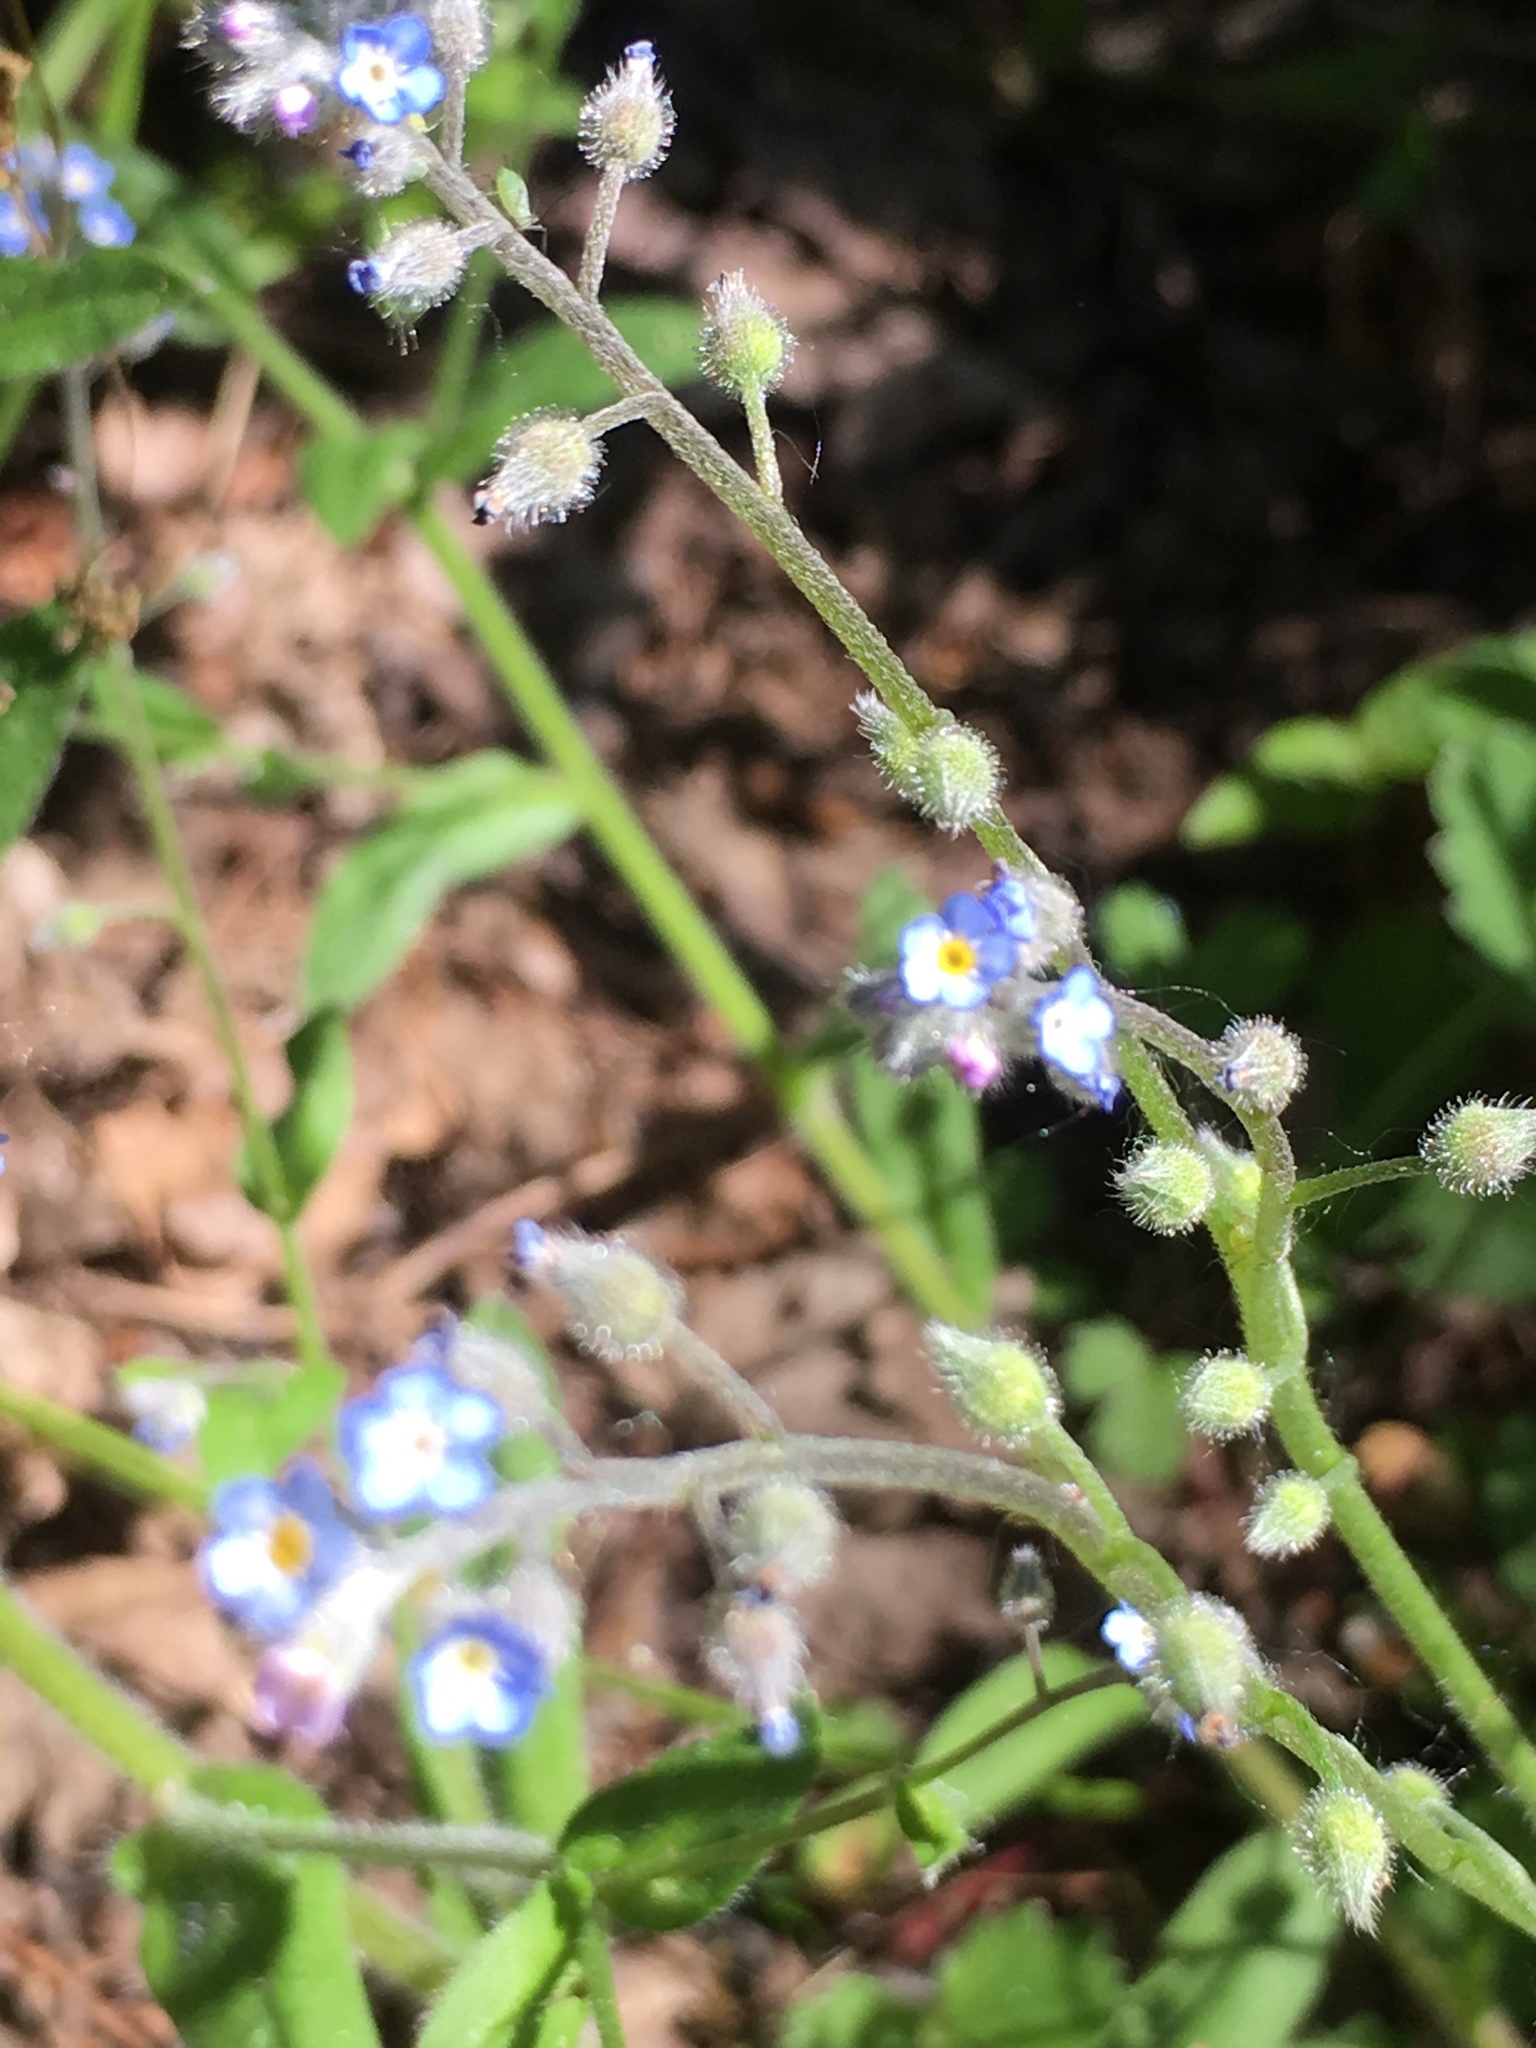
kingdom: Plantae
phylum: Tracheophyta
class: Magnoliopsida
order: Boraginales
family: Boraginaceae
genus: Myosotis
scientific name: Myosotis arvensis
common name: Field forget-me-not
